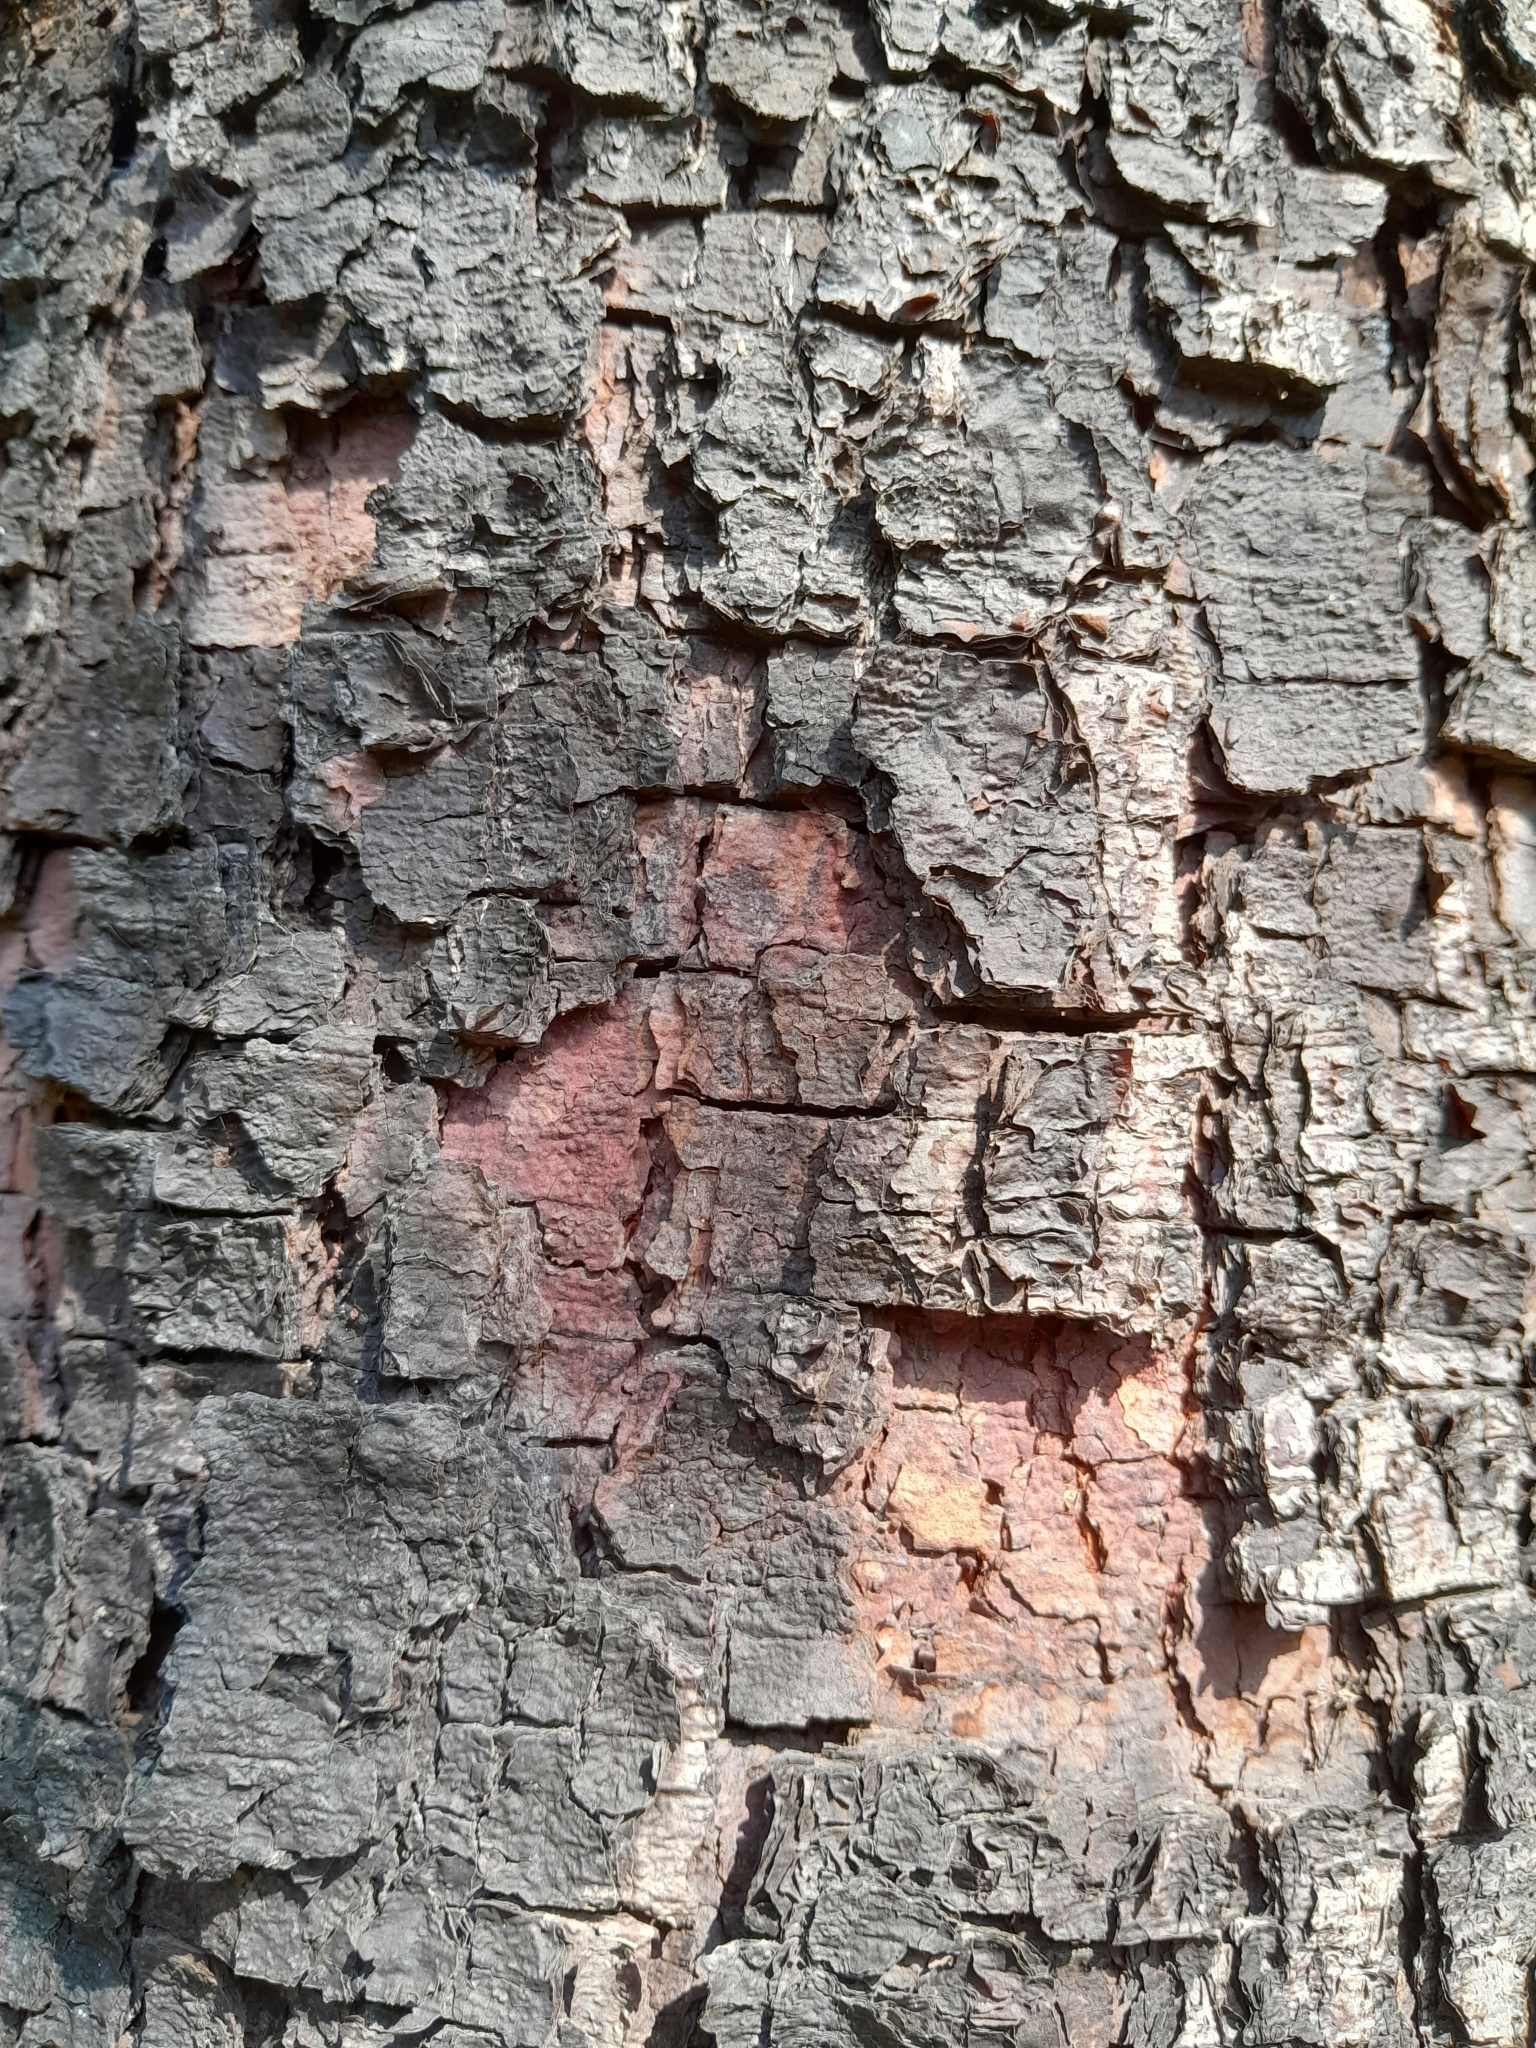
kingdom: Plantae
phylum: Tracheophyta
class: Magnoliopsida
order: Fabales
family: Fabaceae
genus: Copaifera
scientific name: Copaifera langsdorffii
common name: Brazilian diesel tree
